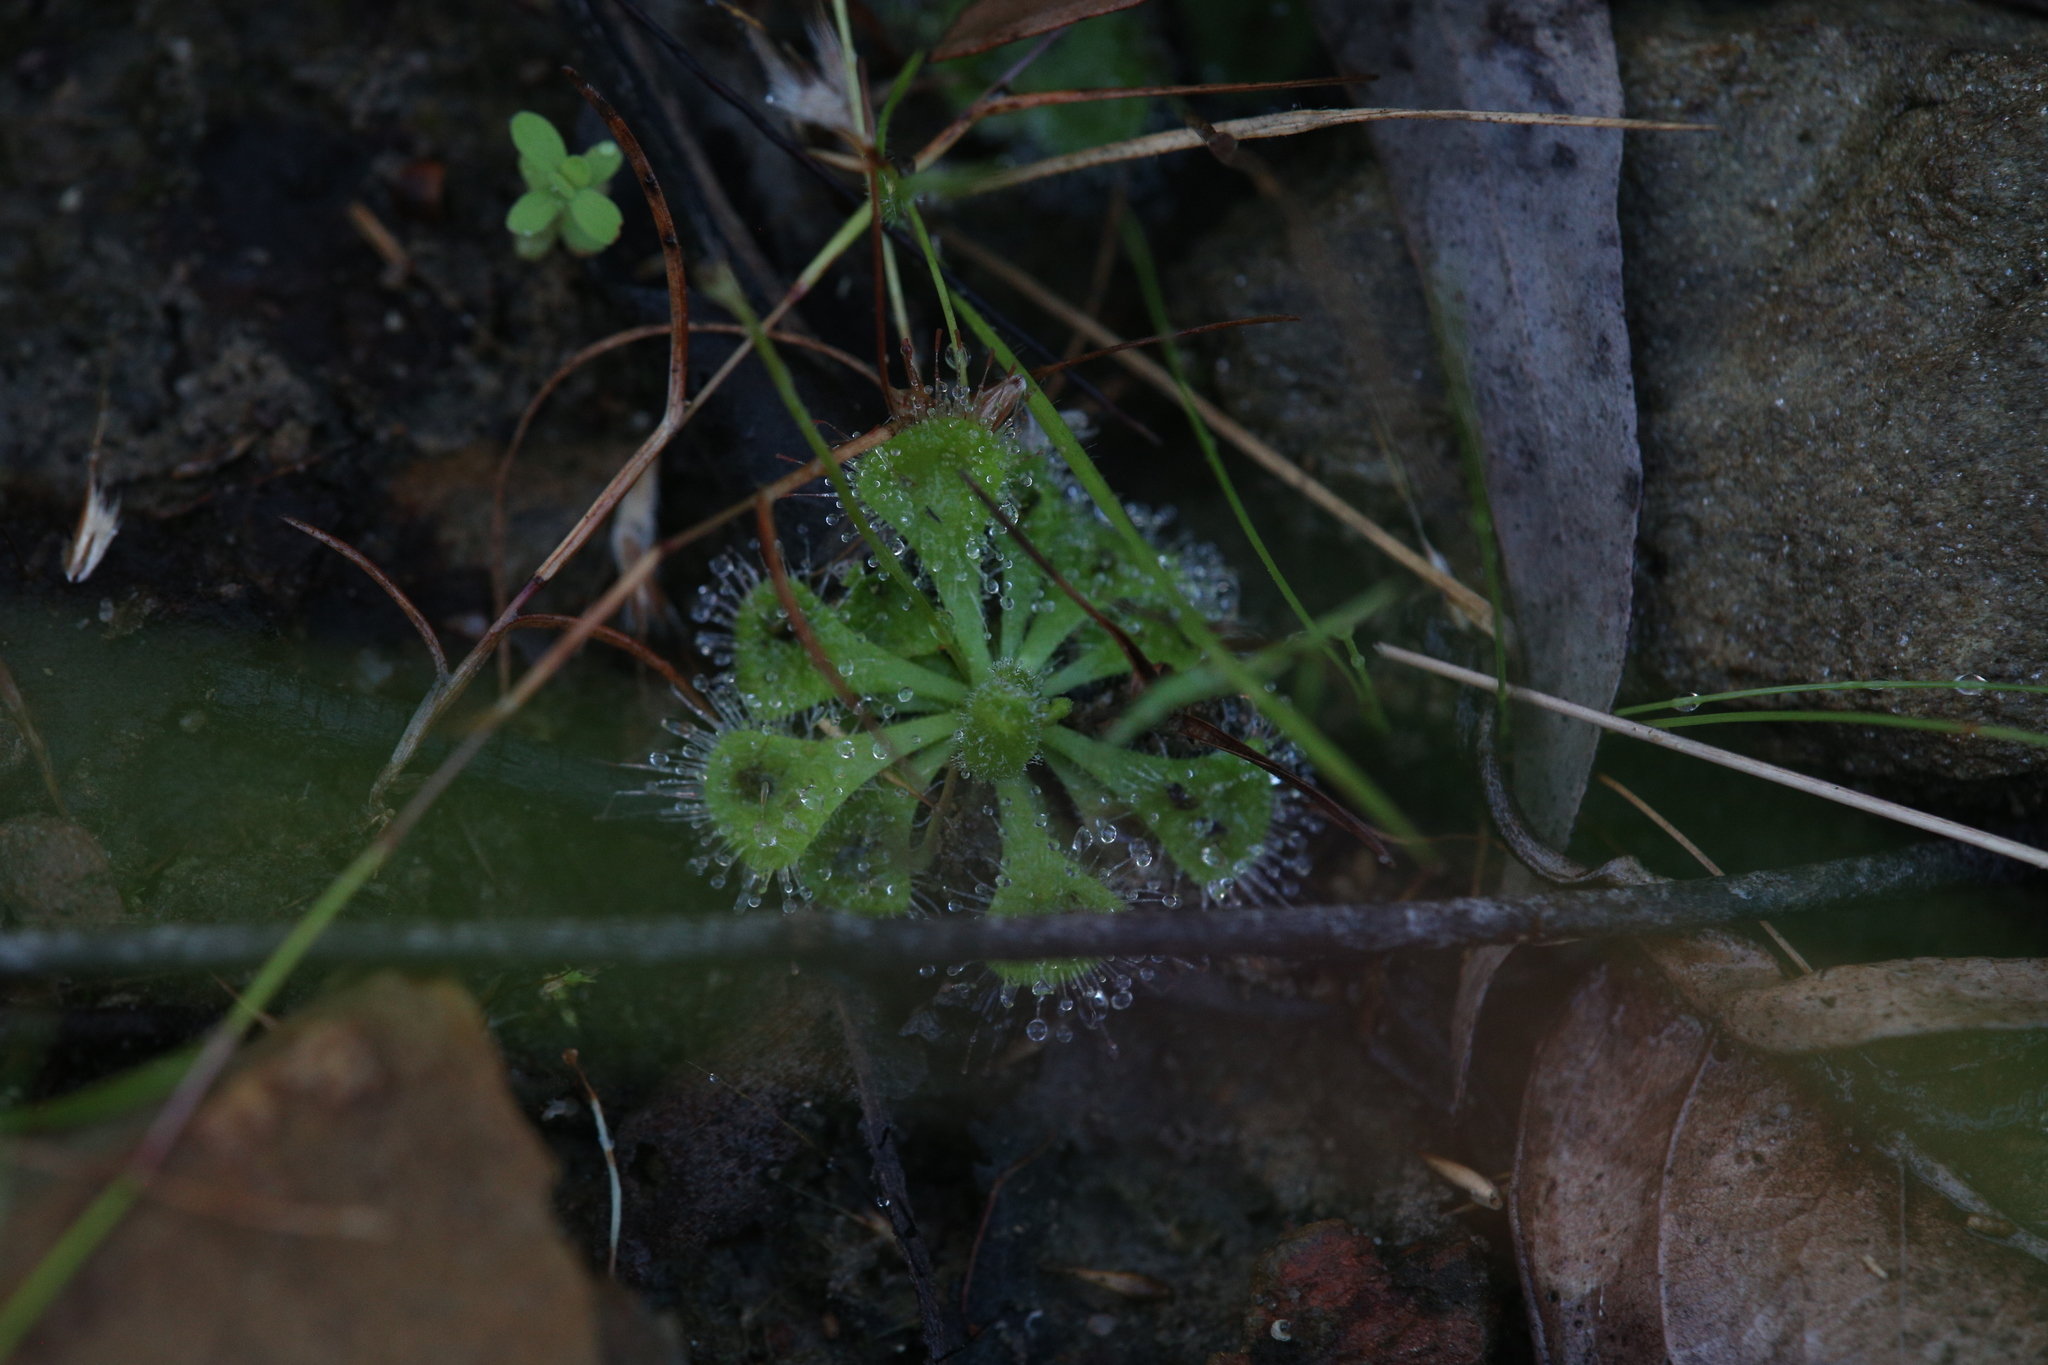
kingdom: Plantae
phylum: Tracheophyta
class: Magnoliopsida
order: Caryophyllales
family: Droseraceae
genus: Drosera
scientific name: Drosera spatulata
